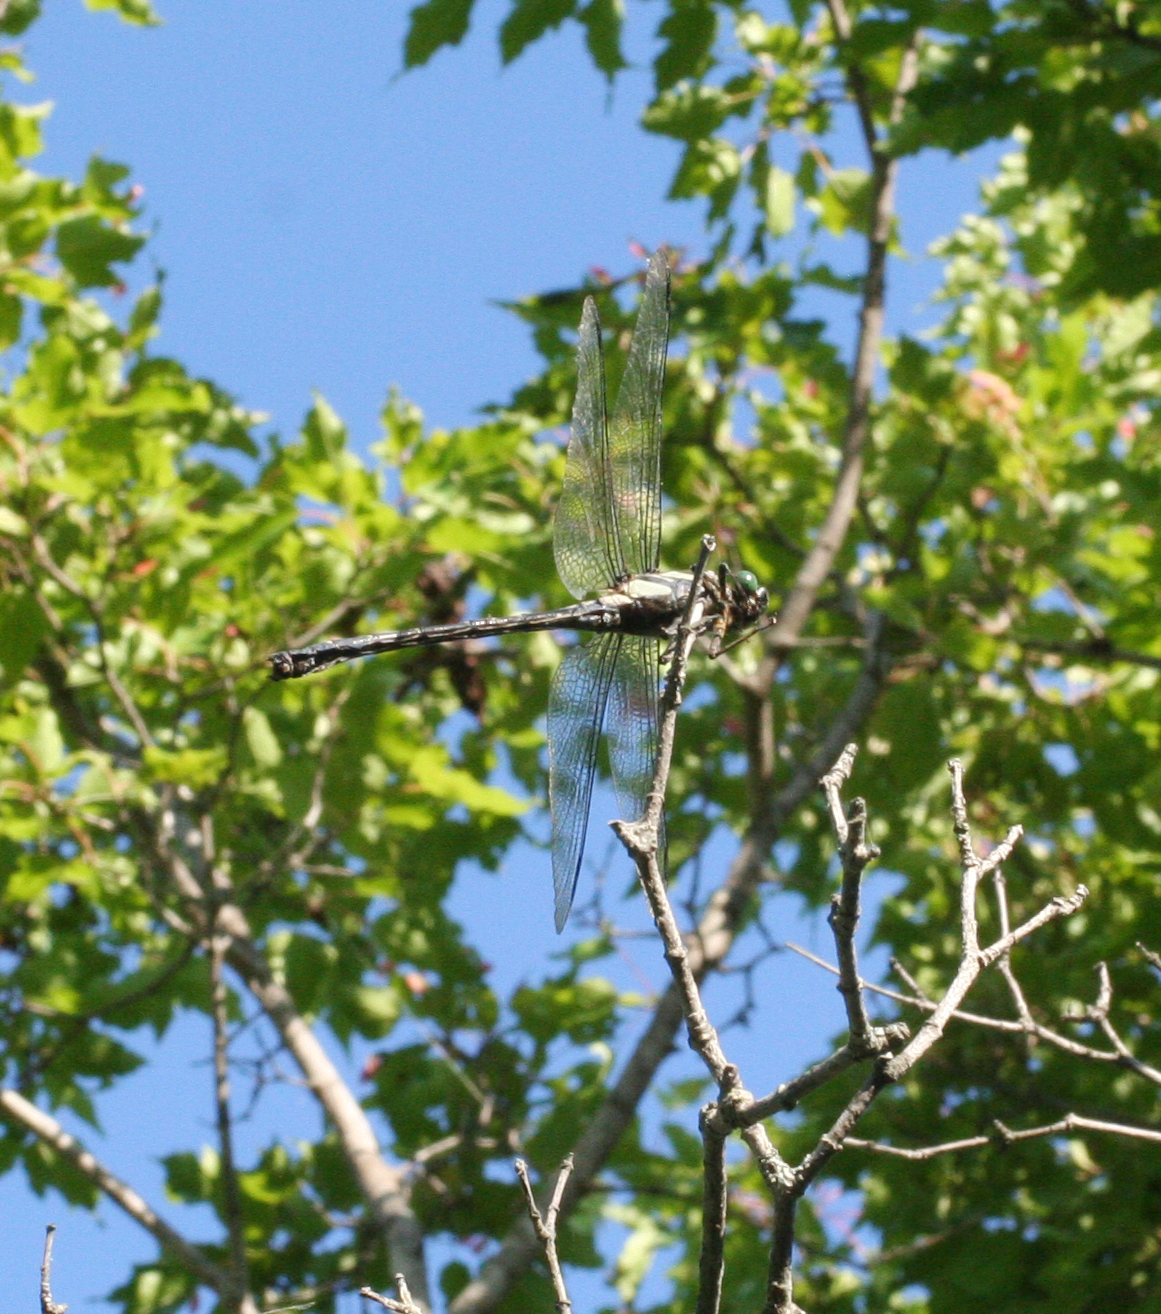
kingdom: Animalia
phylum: Arthropoda
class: Insecta
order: Odonata
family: Gomphidae
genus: Sieboldius
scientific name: Sieboldius albardae
